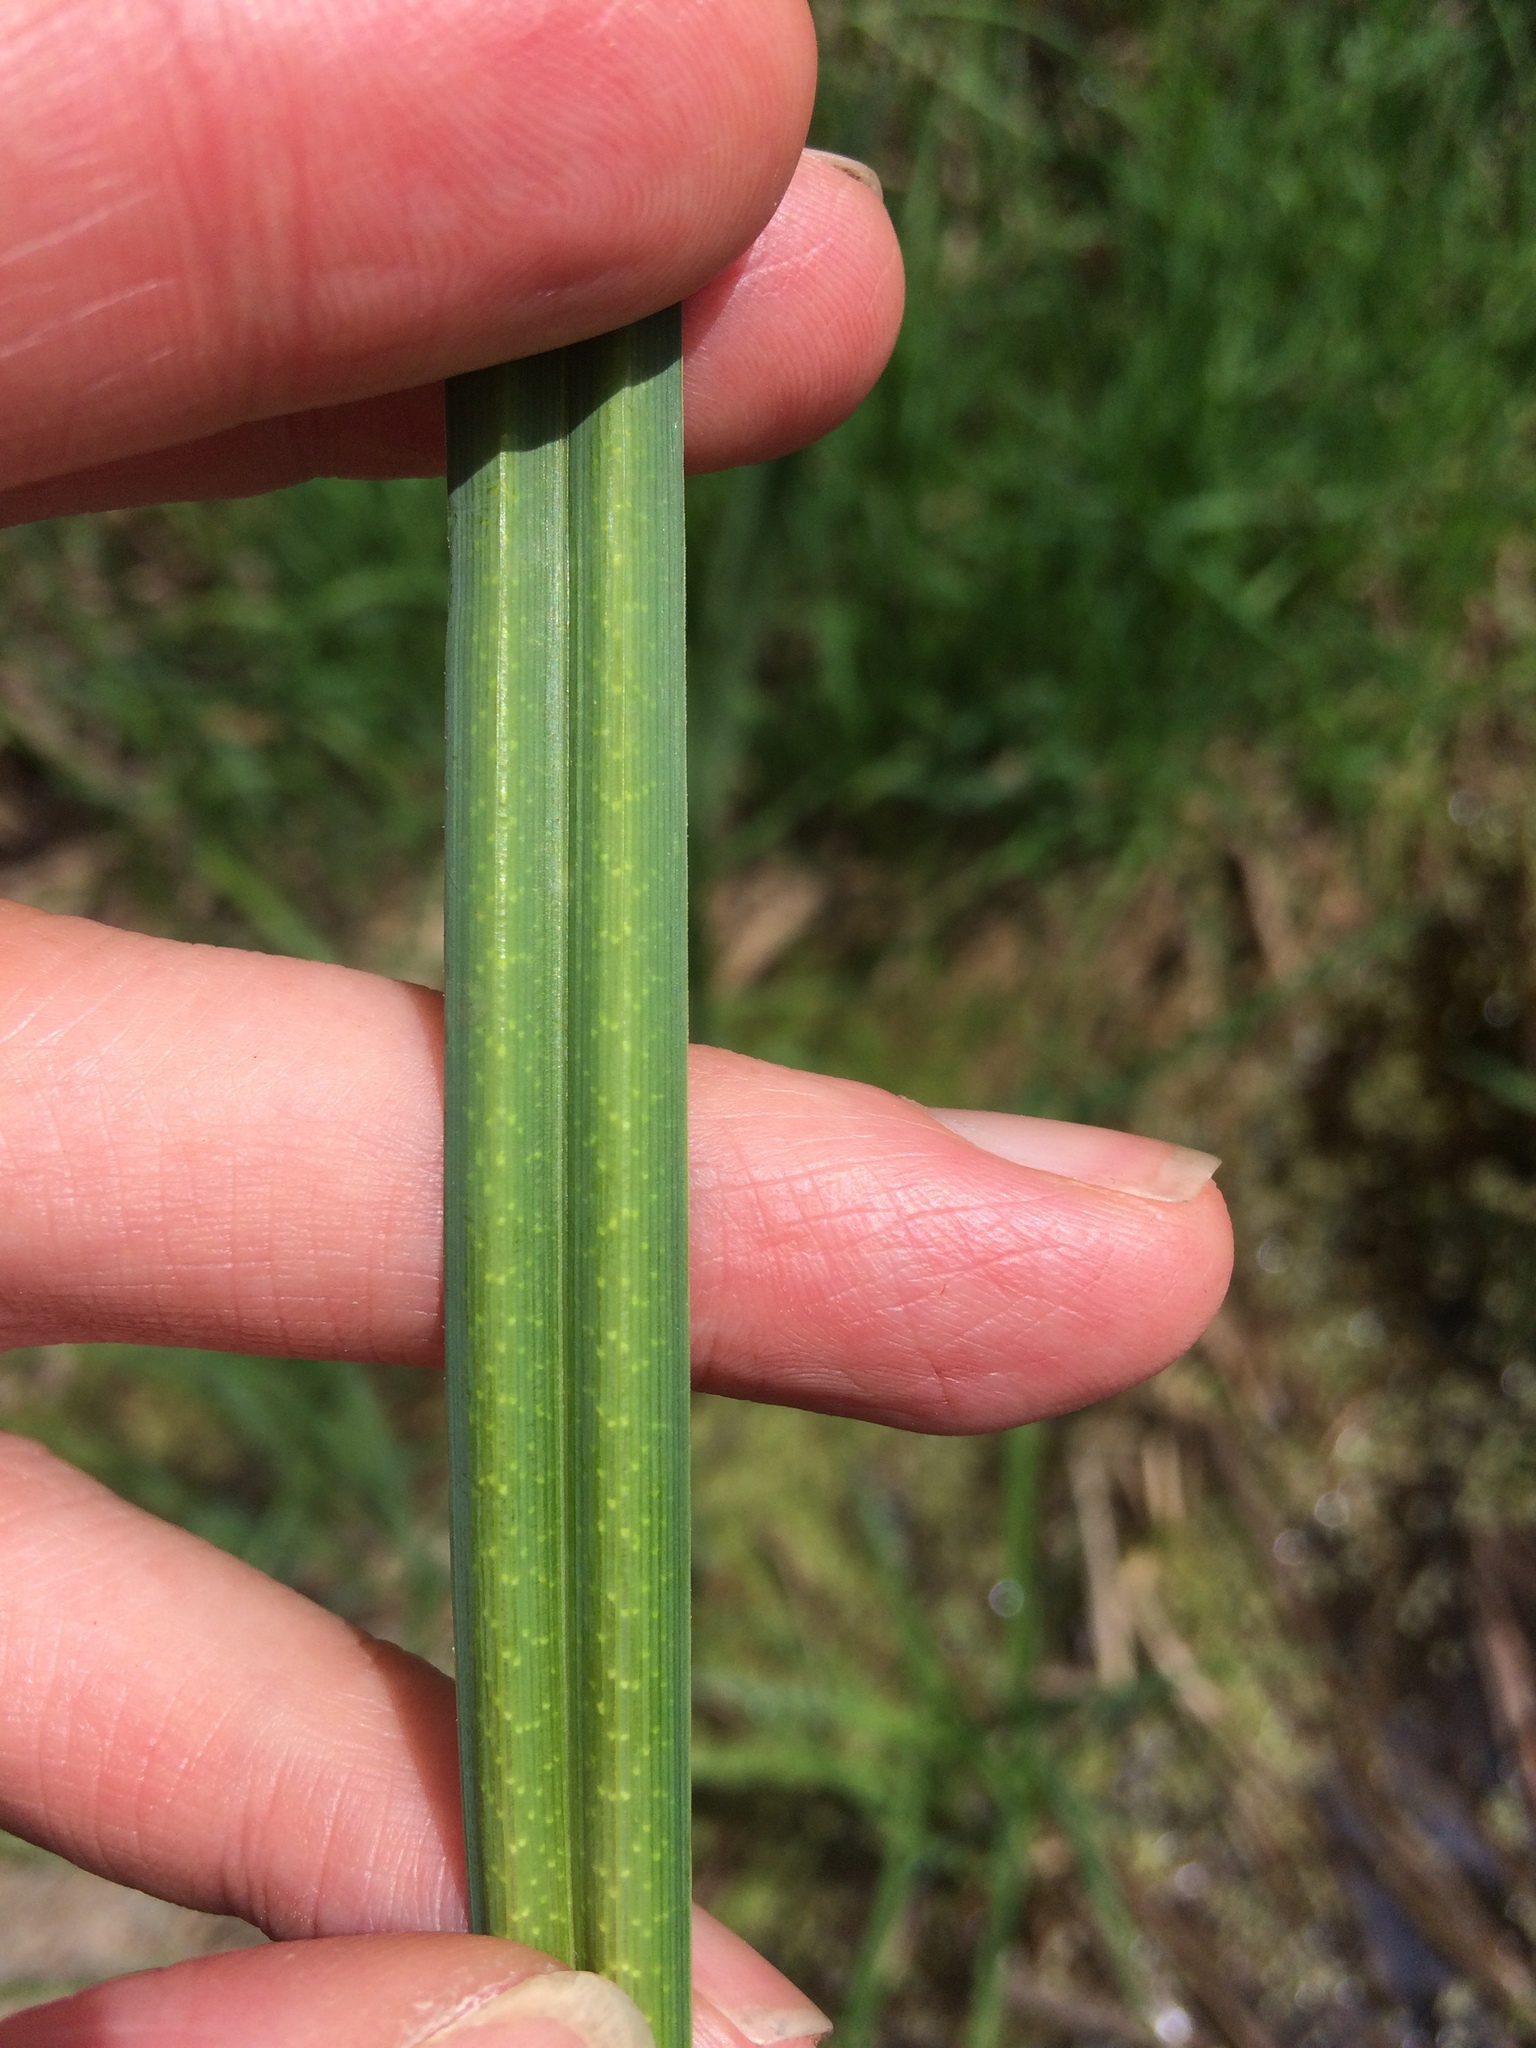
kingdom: Plantae
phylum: Tracheophyta
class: Liliopsida
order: Poales
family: Cyperaceae
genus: Carex
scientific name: Carex
